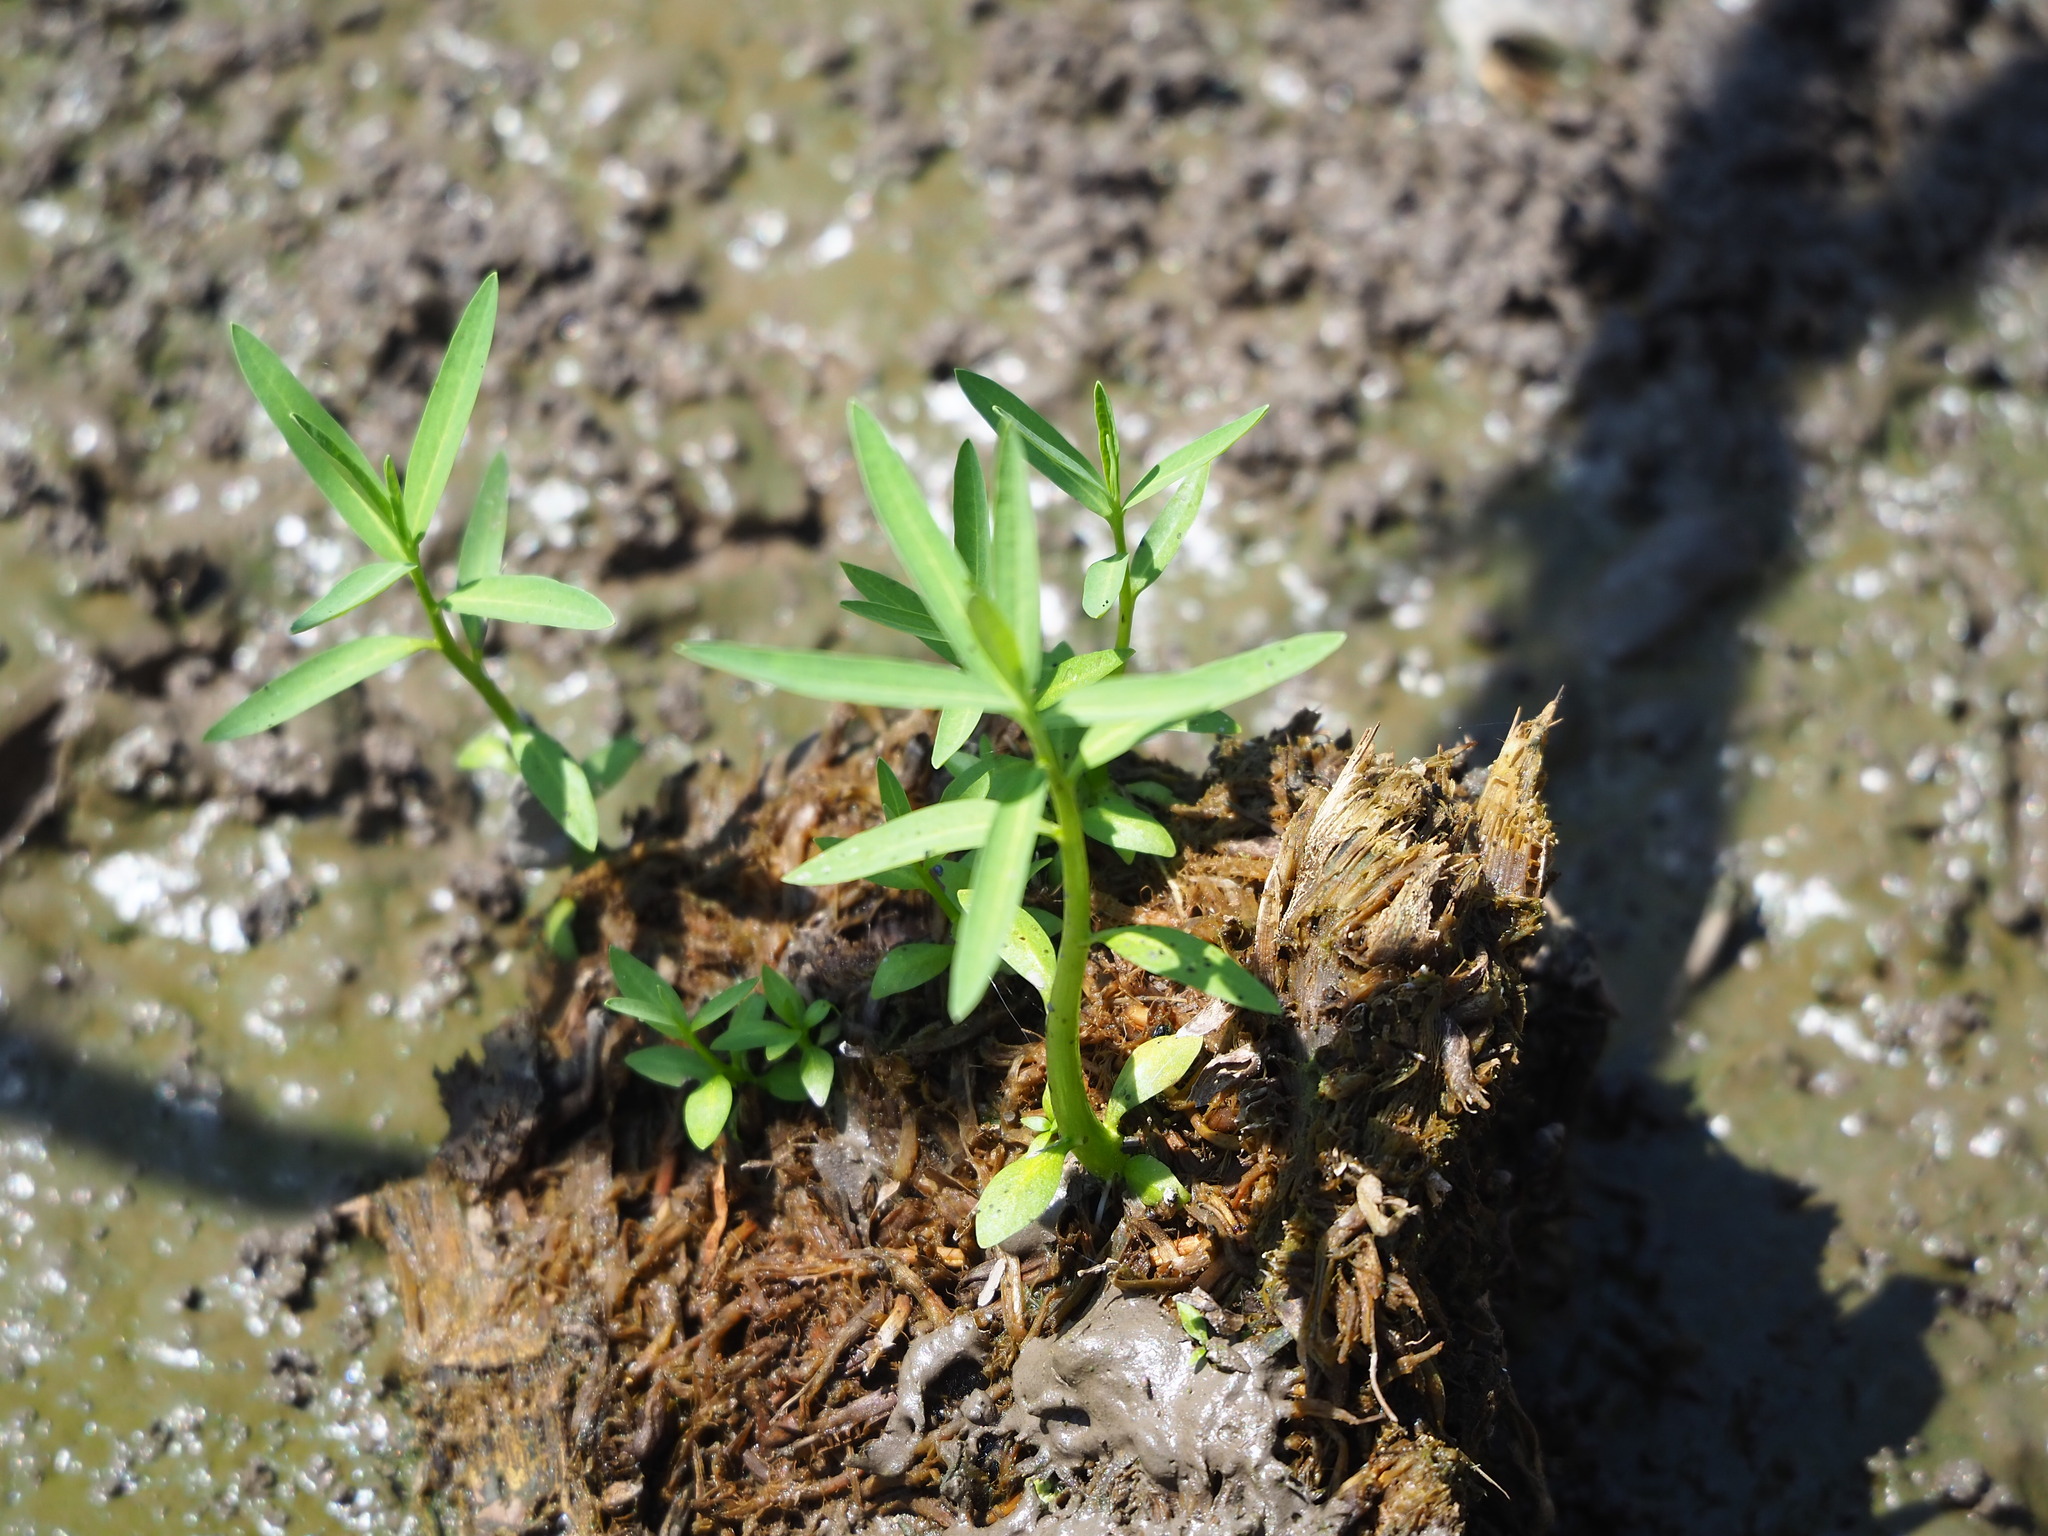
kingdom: Plantae
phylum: Tracheophyta
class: Magnoliopsida
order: Solanales
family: Sphenocleaceae
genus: Sphenoclea
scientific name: Sphenoclea zeylanica
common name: Chickenspike
